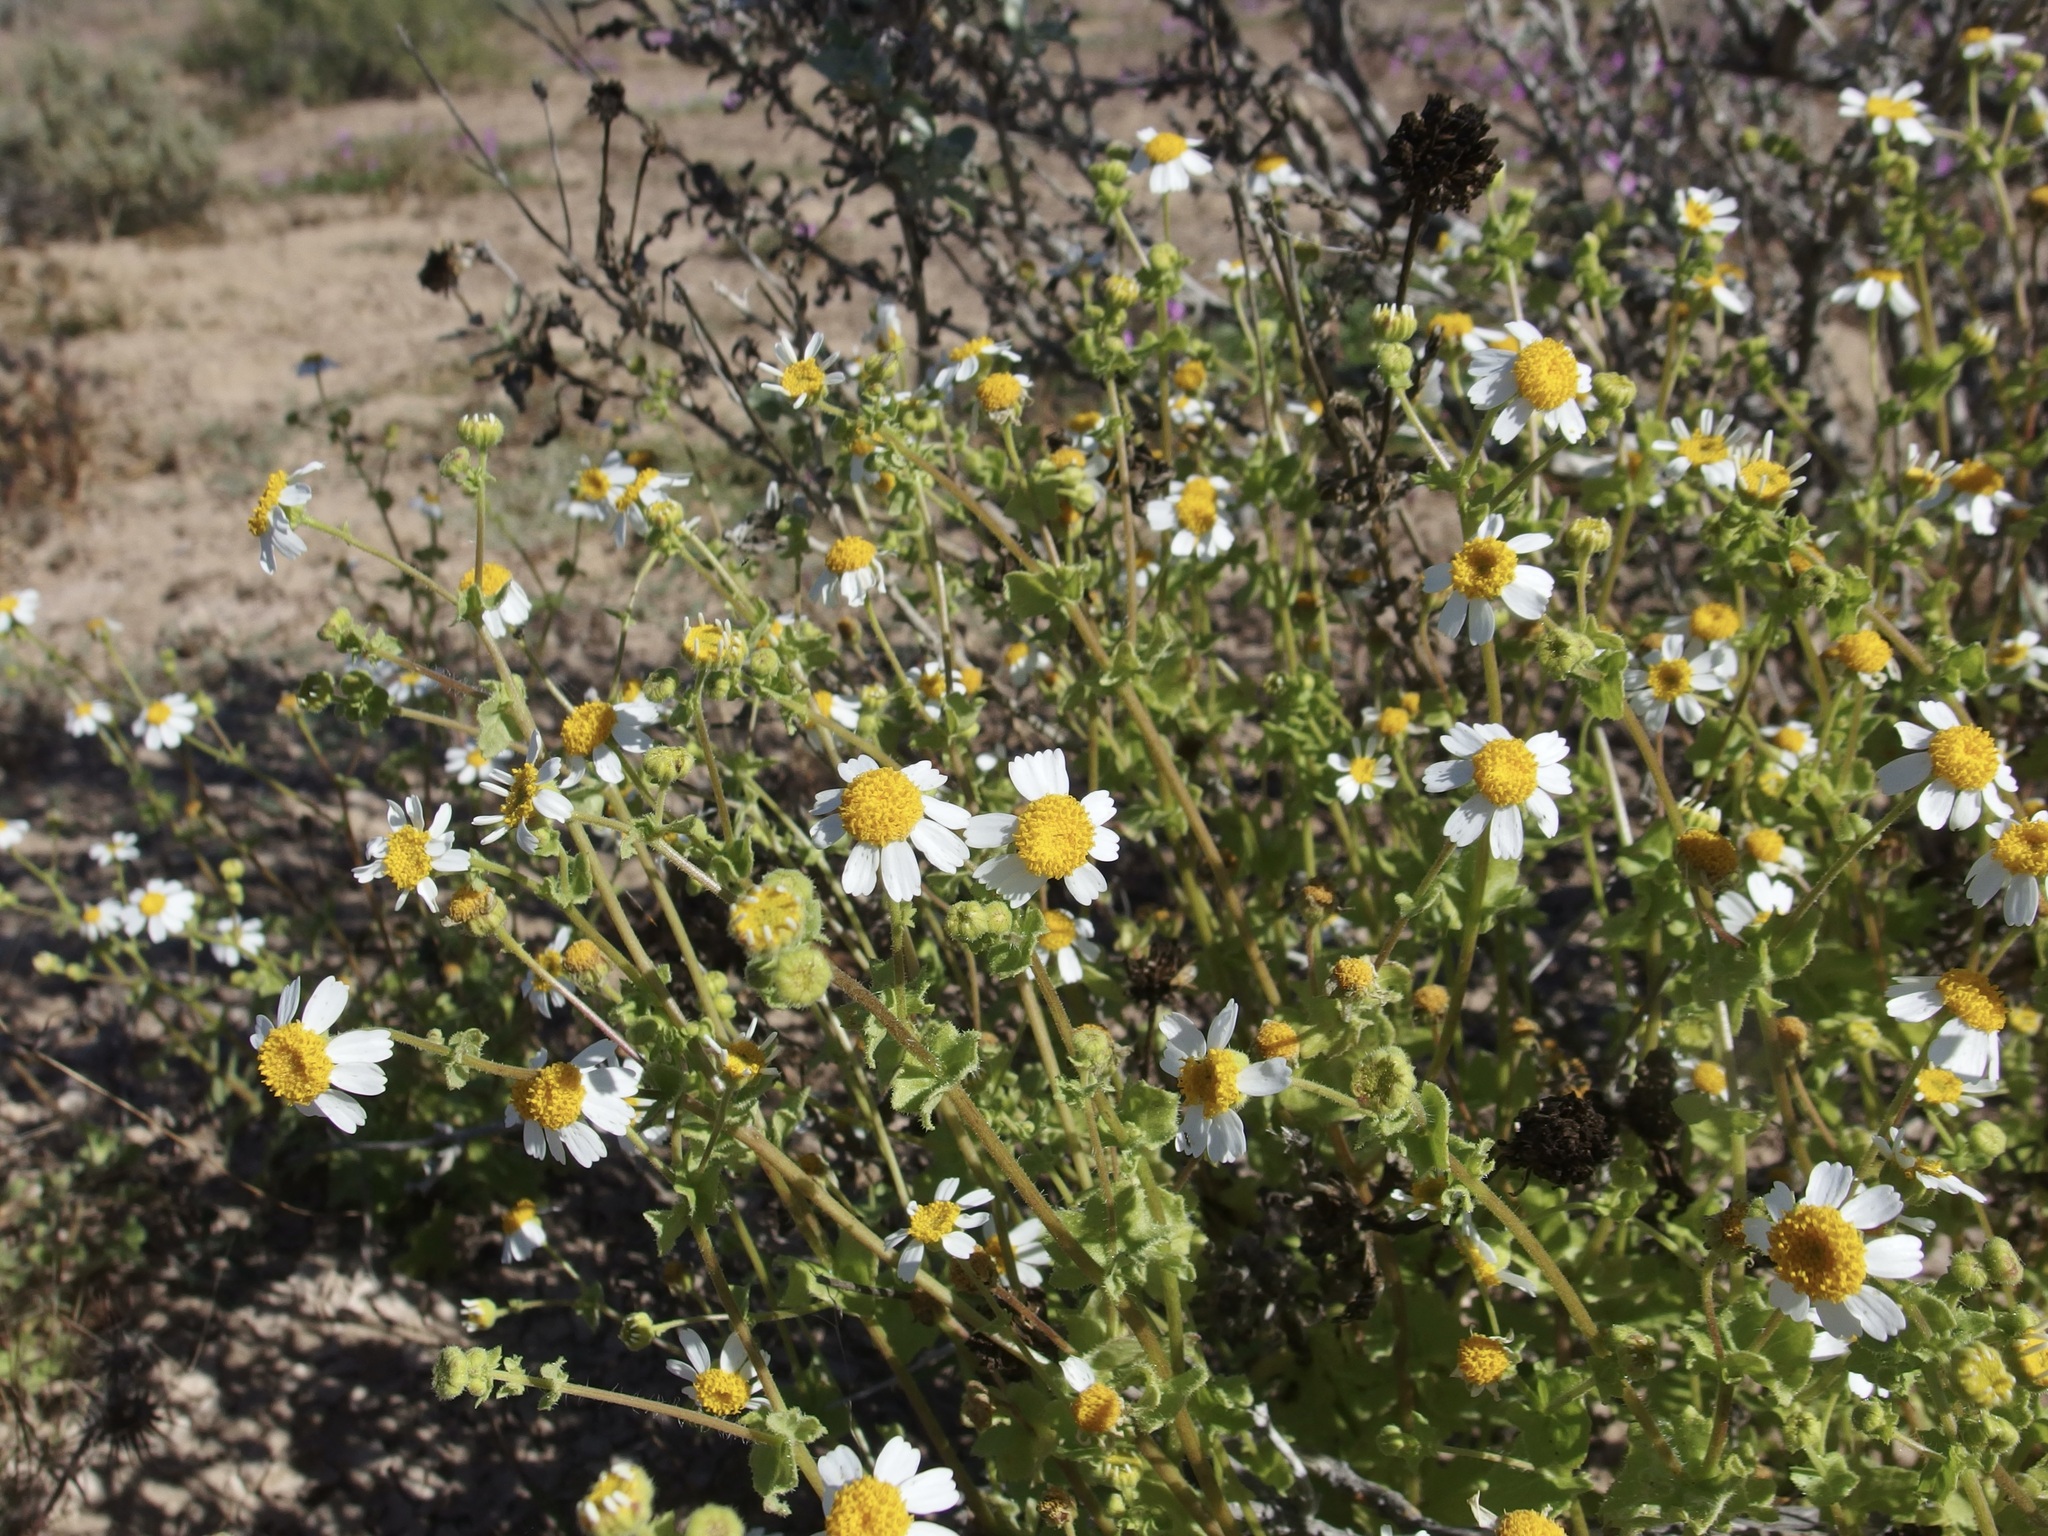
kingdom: Plantae
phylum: Tracheophyta
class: Magnoliopsida
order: Asterales
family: Asteraceae
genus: Perityle
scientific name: Perityle brandegeeana
